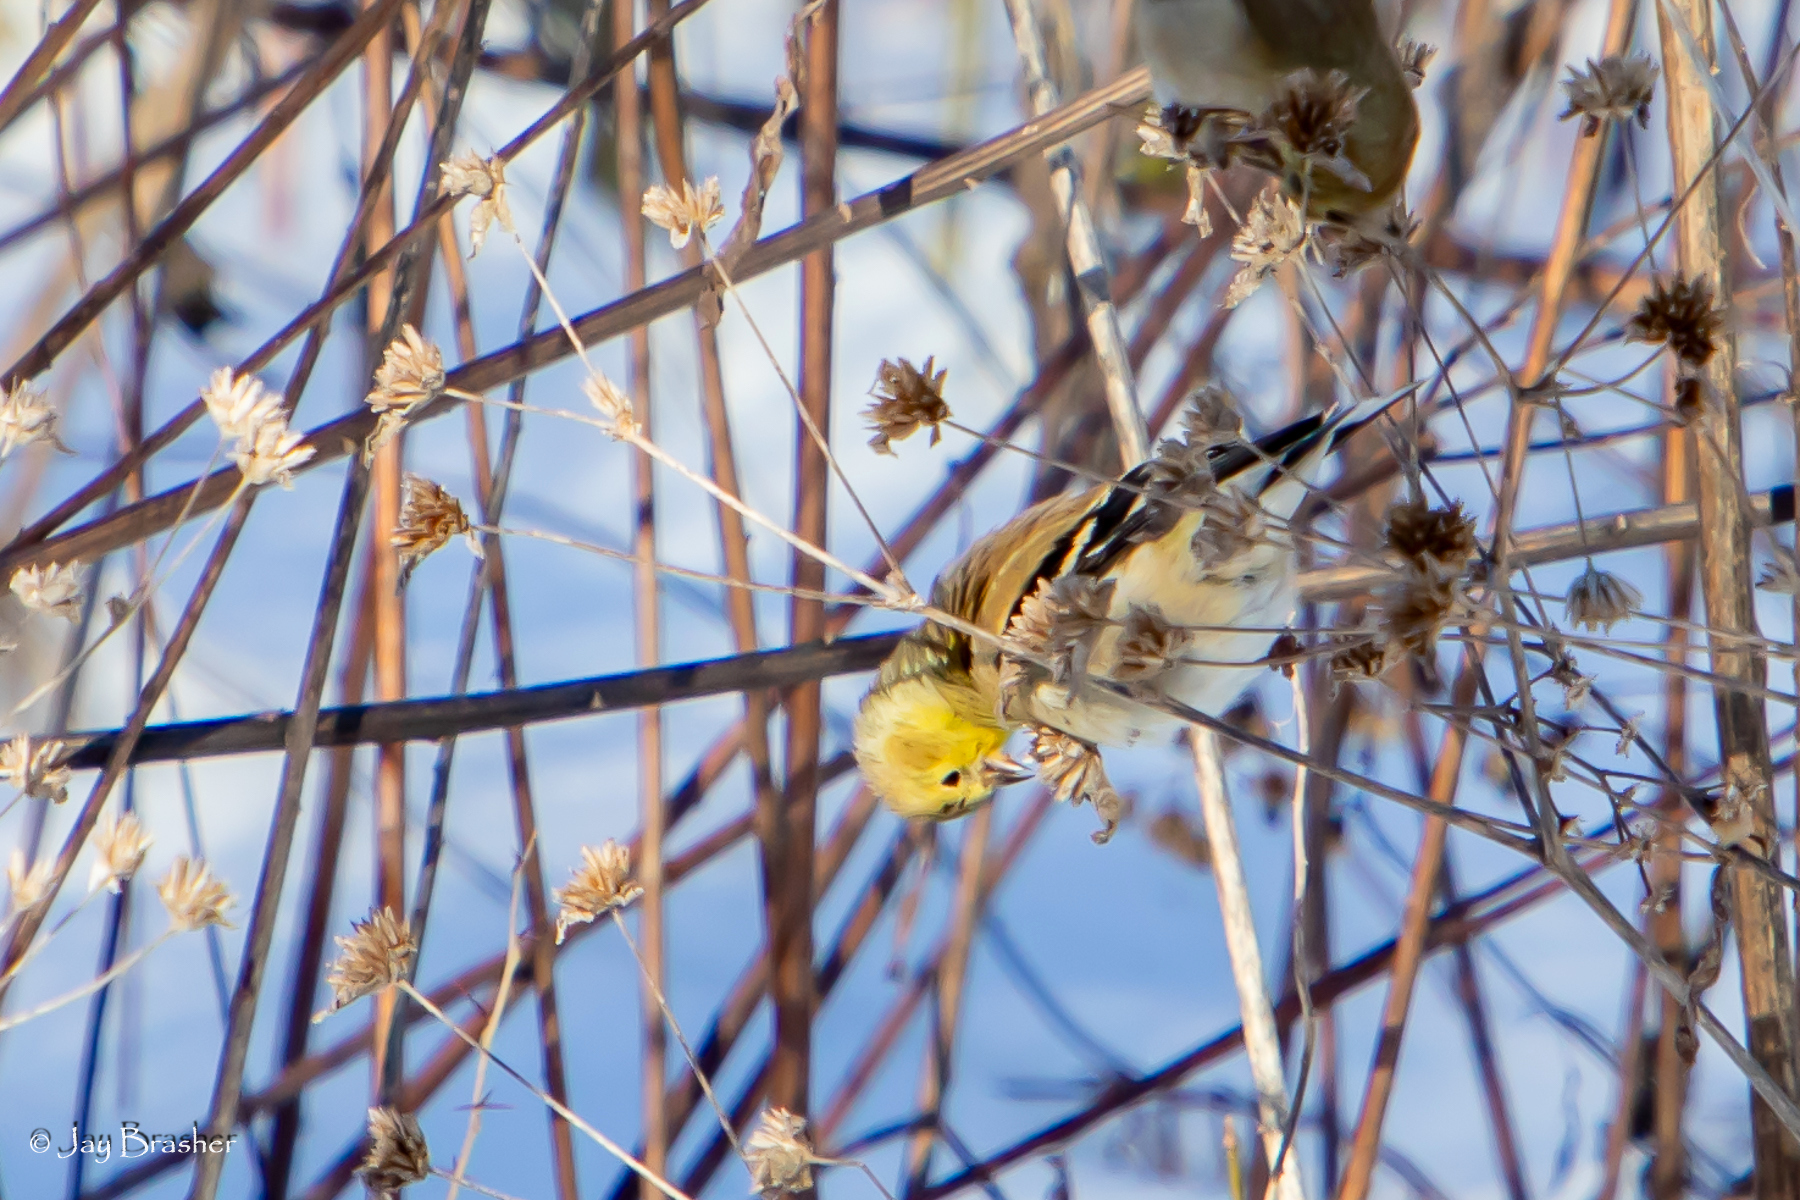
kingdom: Animalia
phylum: Chordata
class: Aves
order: Passeriformes
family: Fringillidae
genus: Spinus
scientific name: Spinus tristis
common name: American goldfinch
